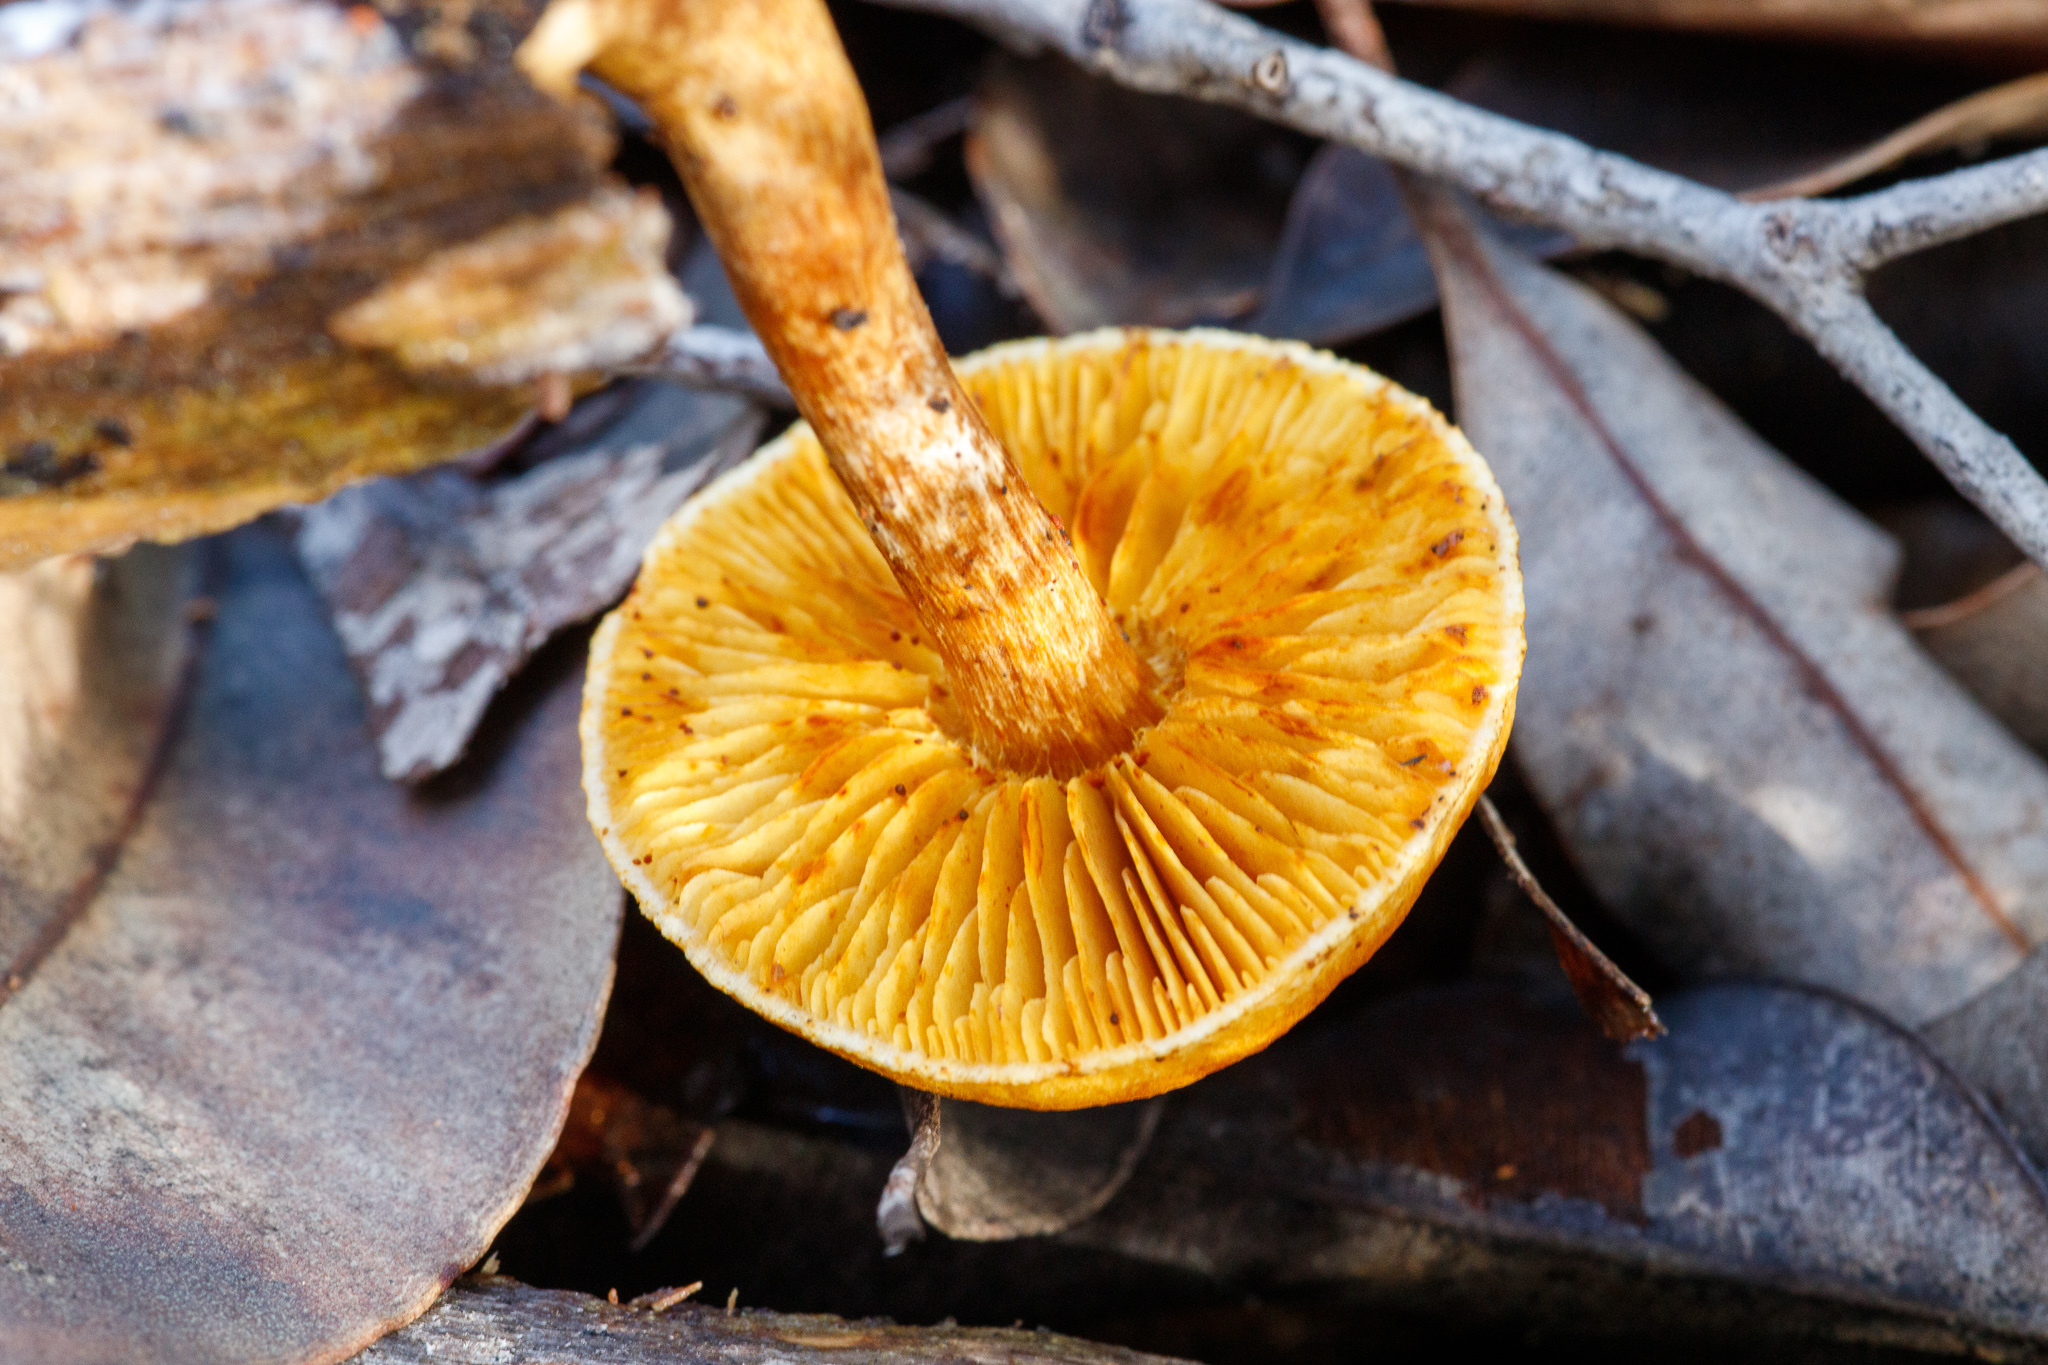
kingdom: Fungi
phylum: Basidiomycota
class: Agaricomycetes
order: Agaricales
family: Hymenogastraceae
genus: Gymnopilus
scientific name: Gymnopilus junonius
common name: Spectacular rustgill
